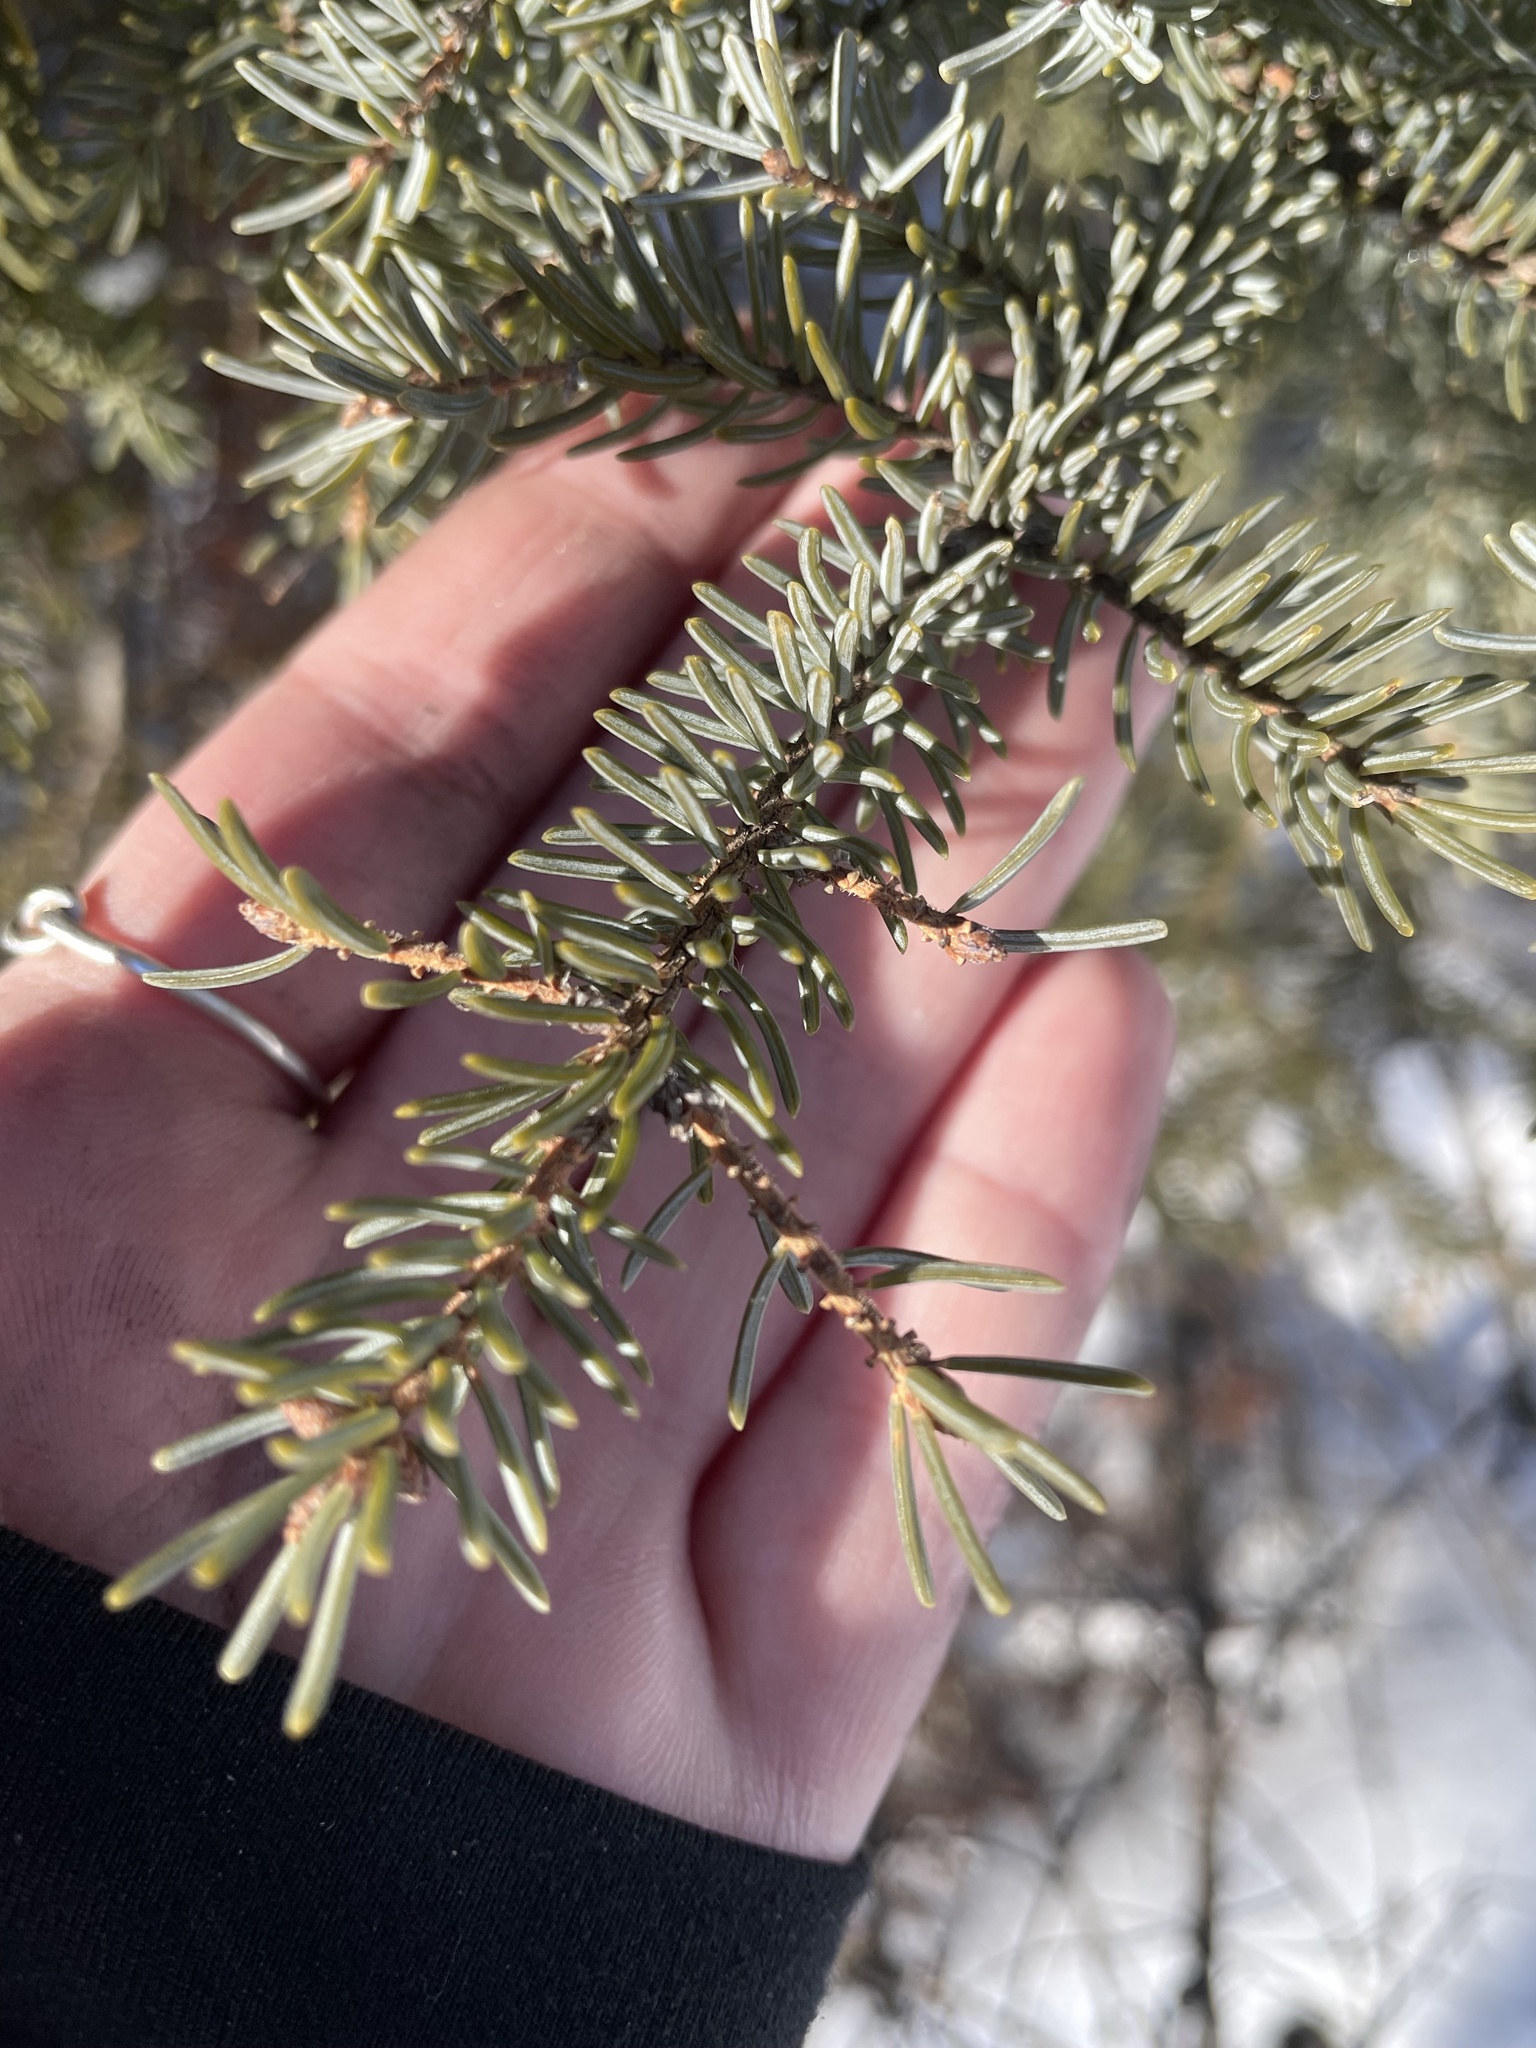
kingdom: Plantae
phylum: Tracheophyta
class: Pinopsida
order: Pinales
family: Pinaceae
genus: Picea
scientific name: Picea mariana
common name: Black spruce
